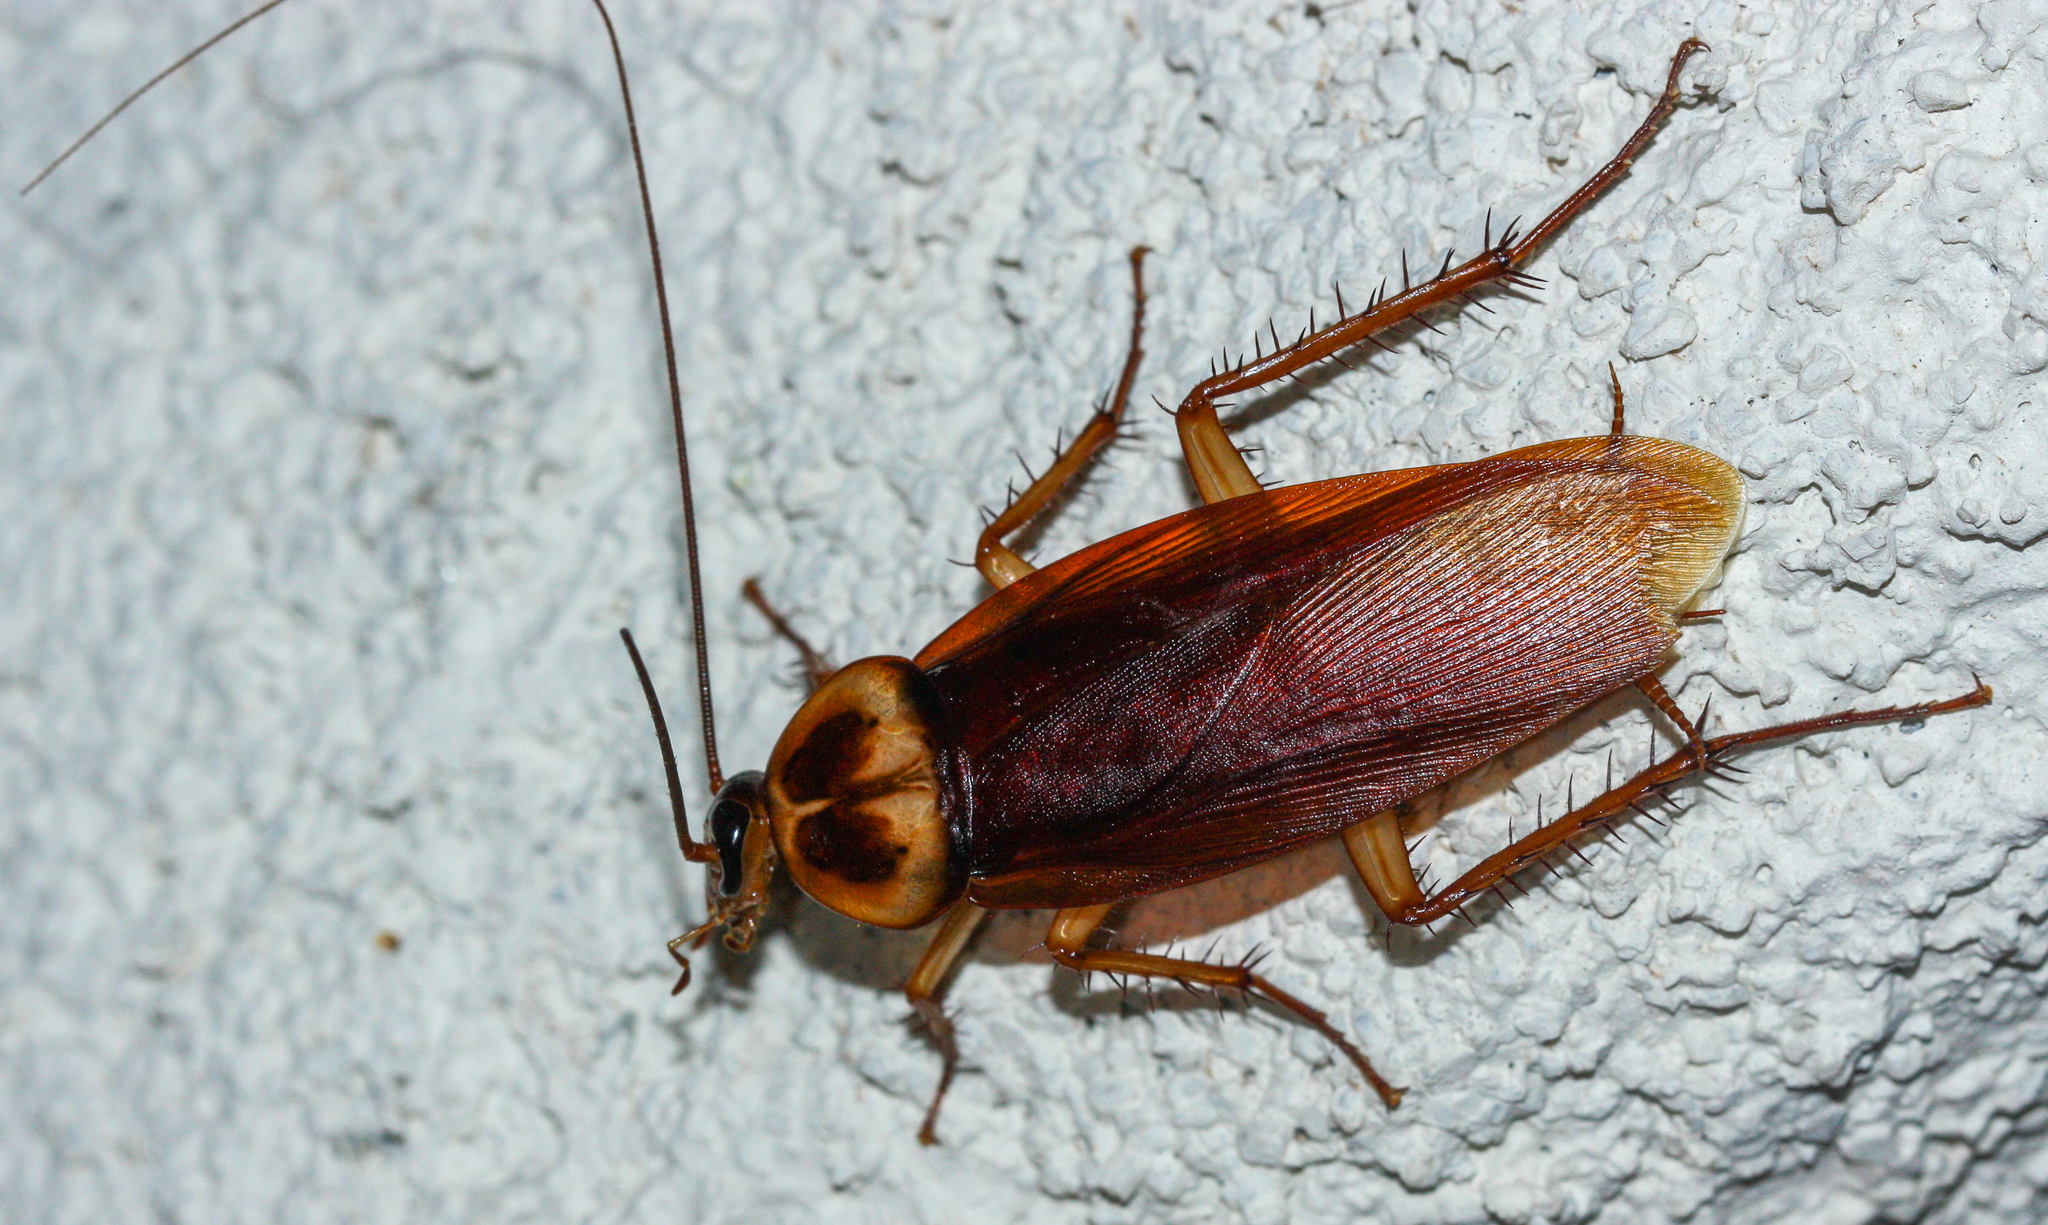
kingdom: Animalia
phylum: Arthropoda
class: Insecta
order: Blattodea
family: Blattidae
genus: Periplaneta
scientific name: Periplaneta americana
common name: American cockroach
